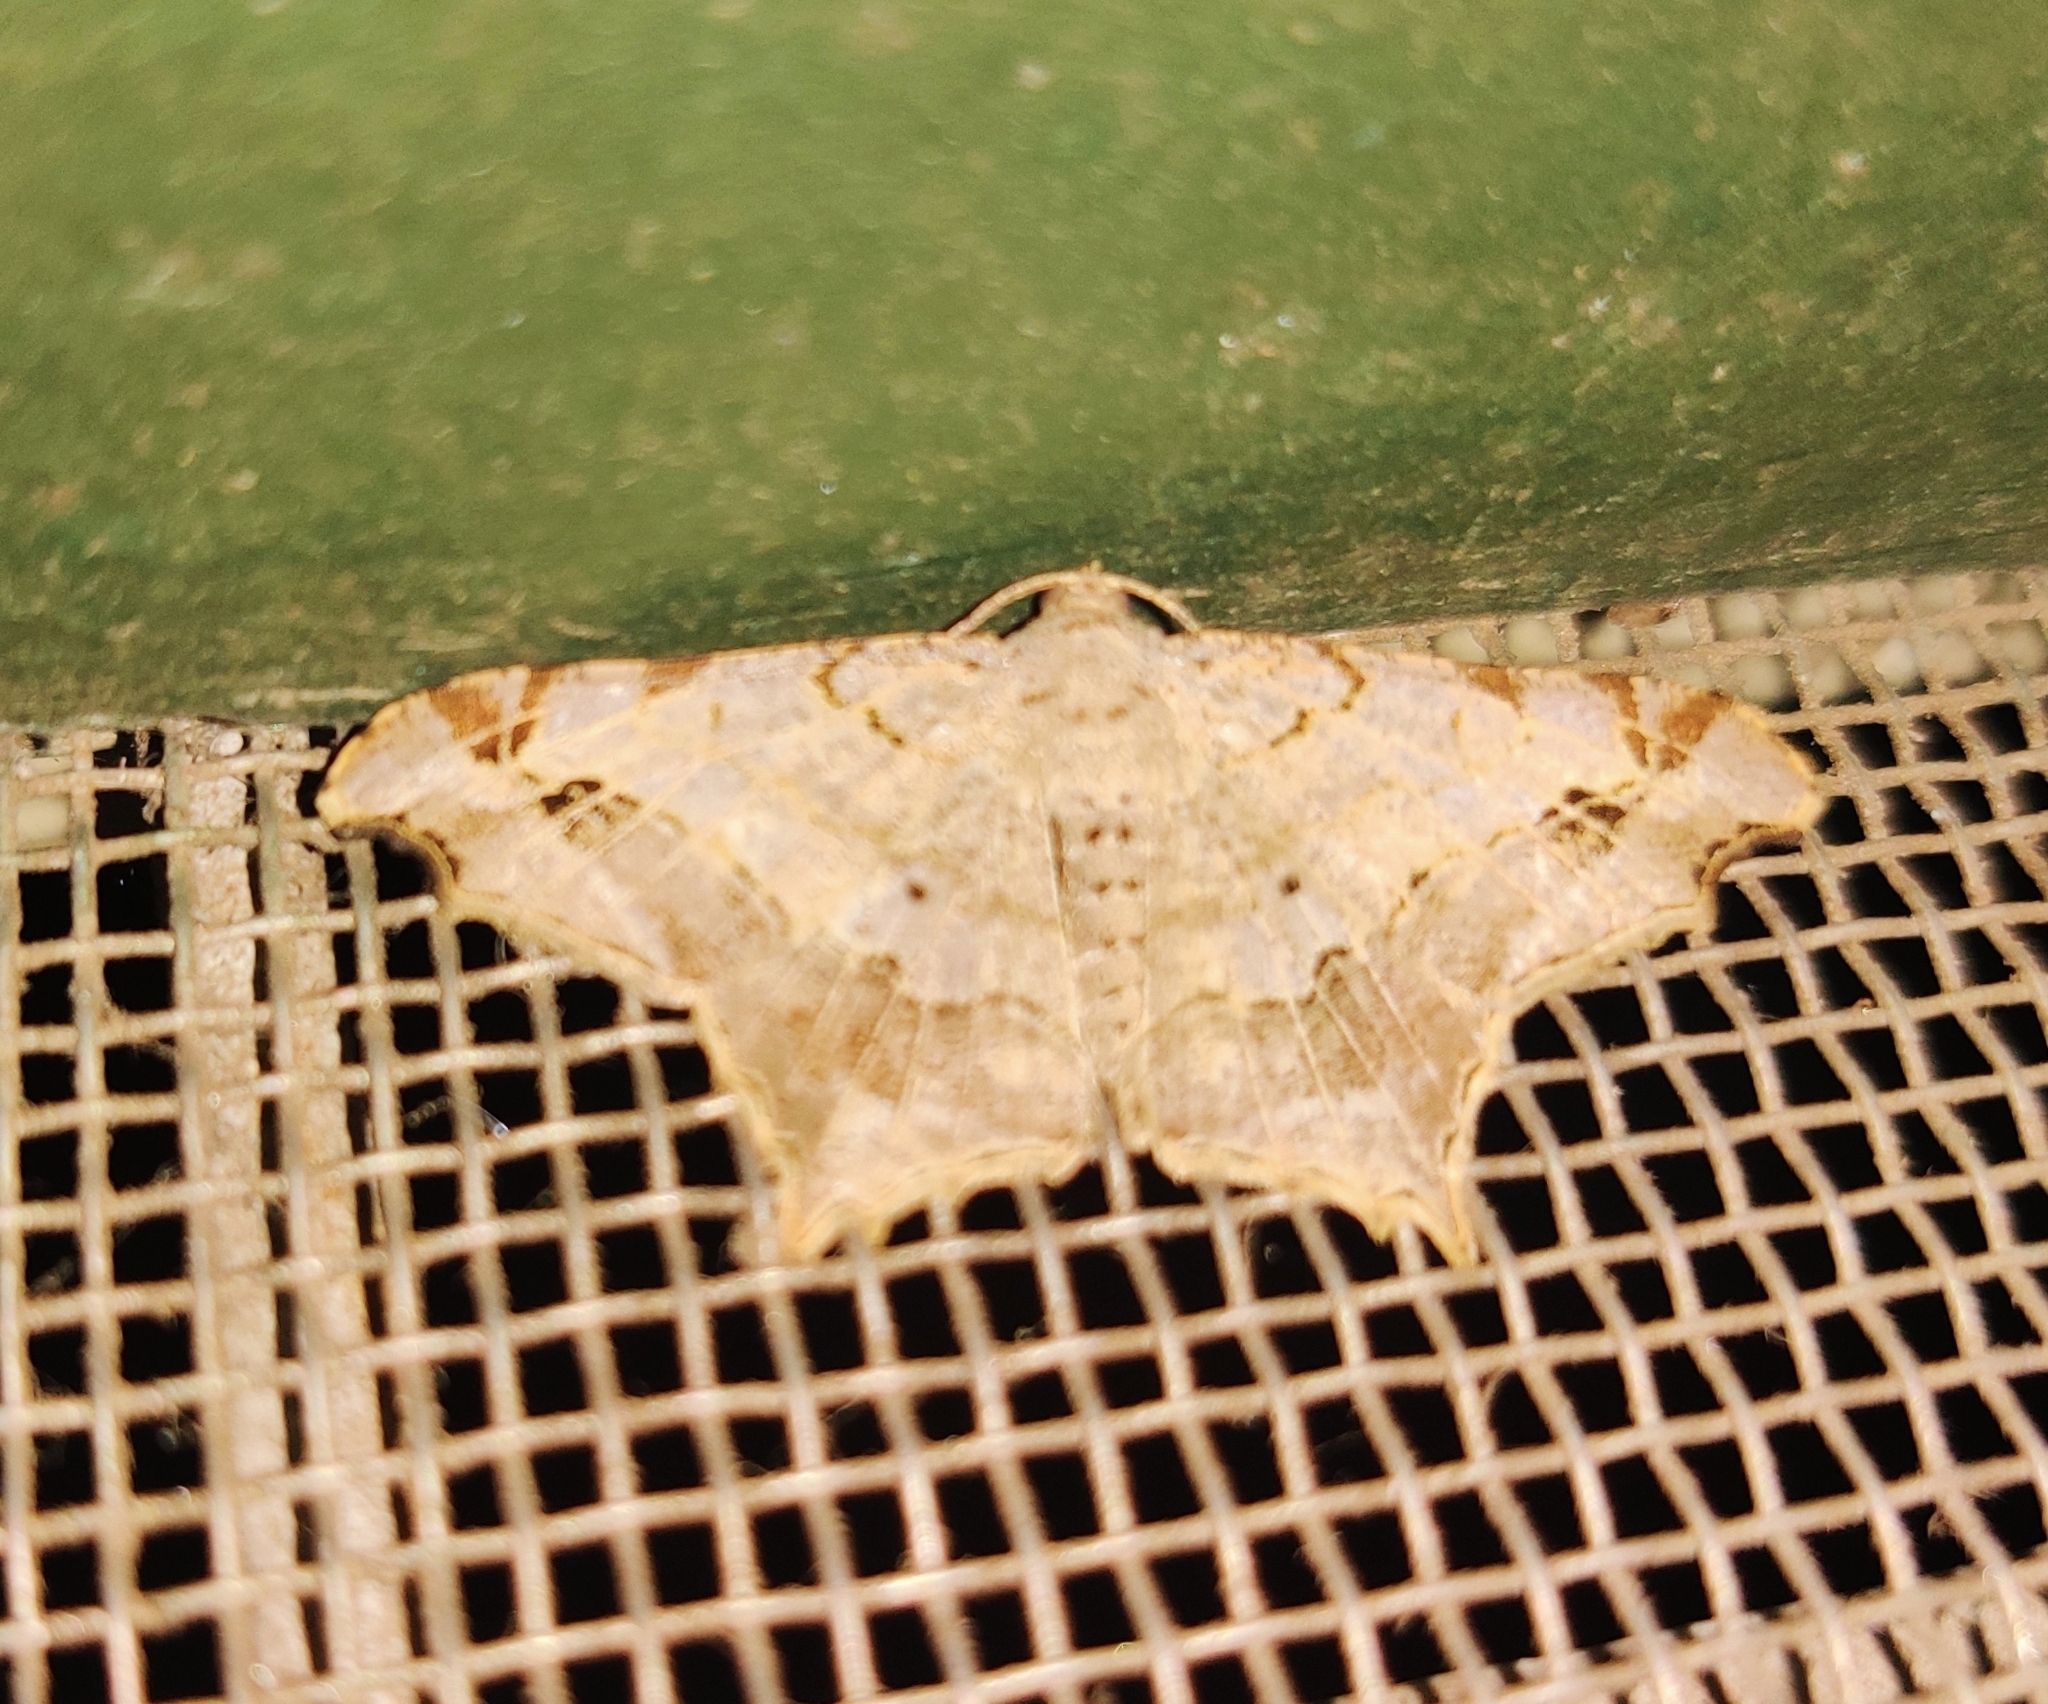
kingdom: Animalia
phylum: Arthropoda
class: Insecta
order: Lepidoptera
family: Geometridae
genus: Chiasmia
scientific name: Chiasmia emersaria
